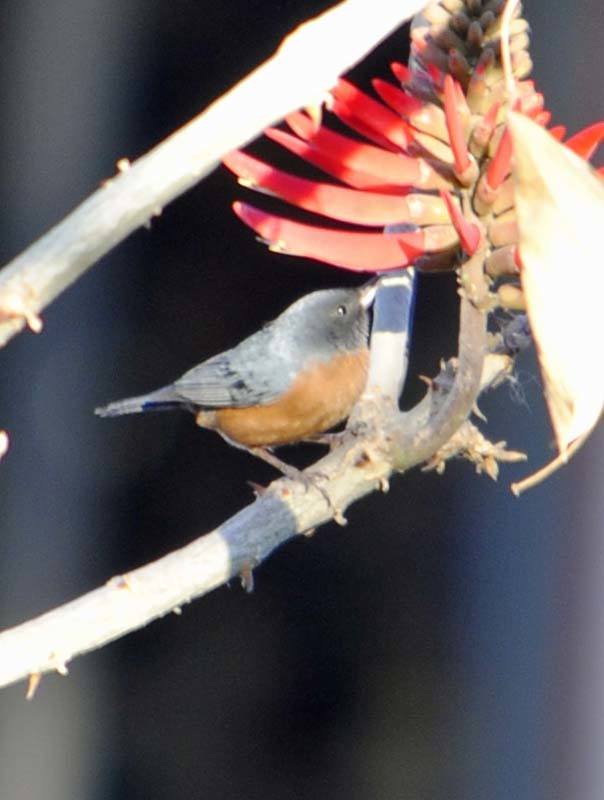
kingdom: Animalia
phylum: Chordata
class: Aves
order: Passeriformes
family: Thraupidae
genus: Diglossa
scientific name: Diglossa baritula
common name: Cinnamon-bellied flowerpiercer
